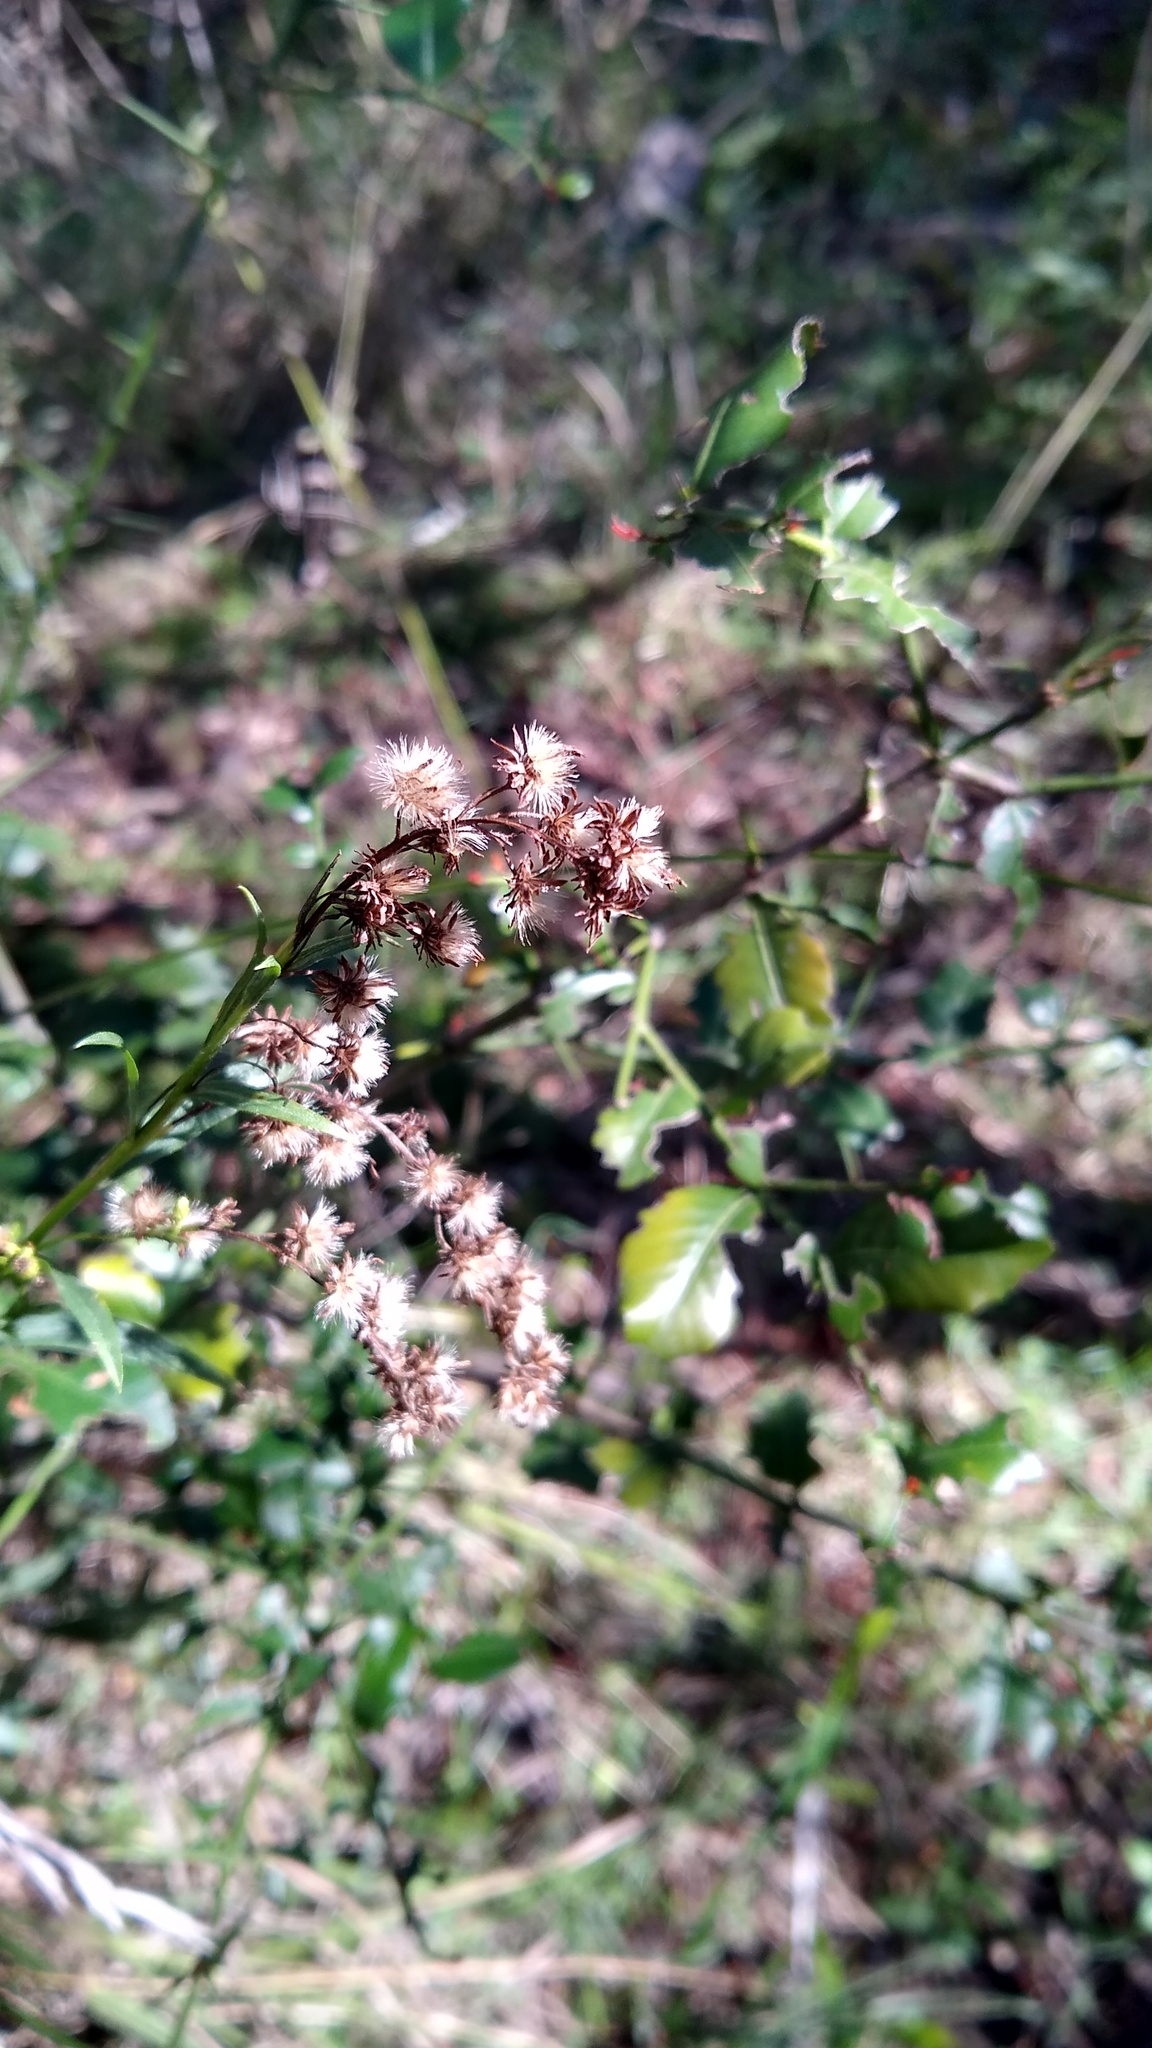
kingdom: Plantae
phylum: Tracheophyta
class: Magnoliopsida
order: Rosales
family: Rhamnaceae
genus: Scutia
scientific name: Scutia buxifolia
